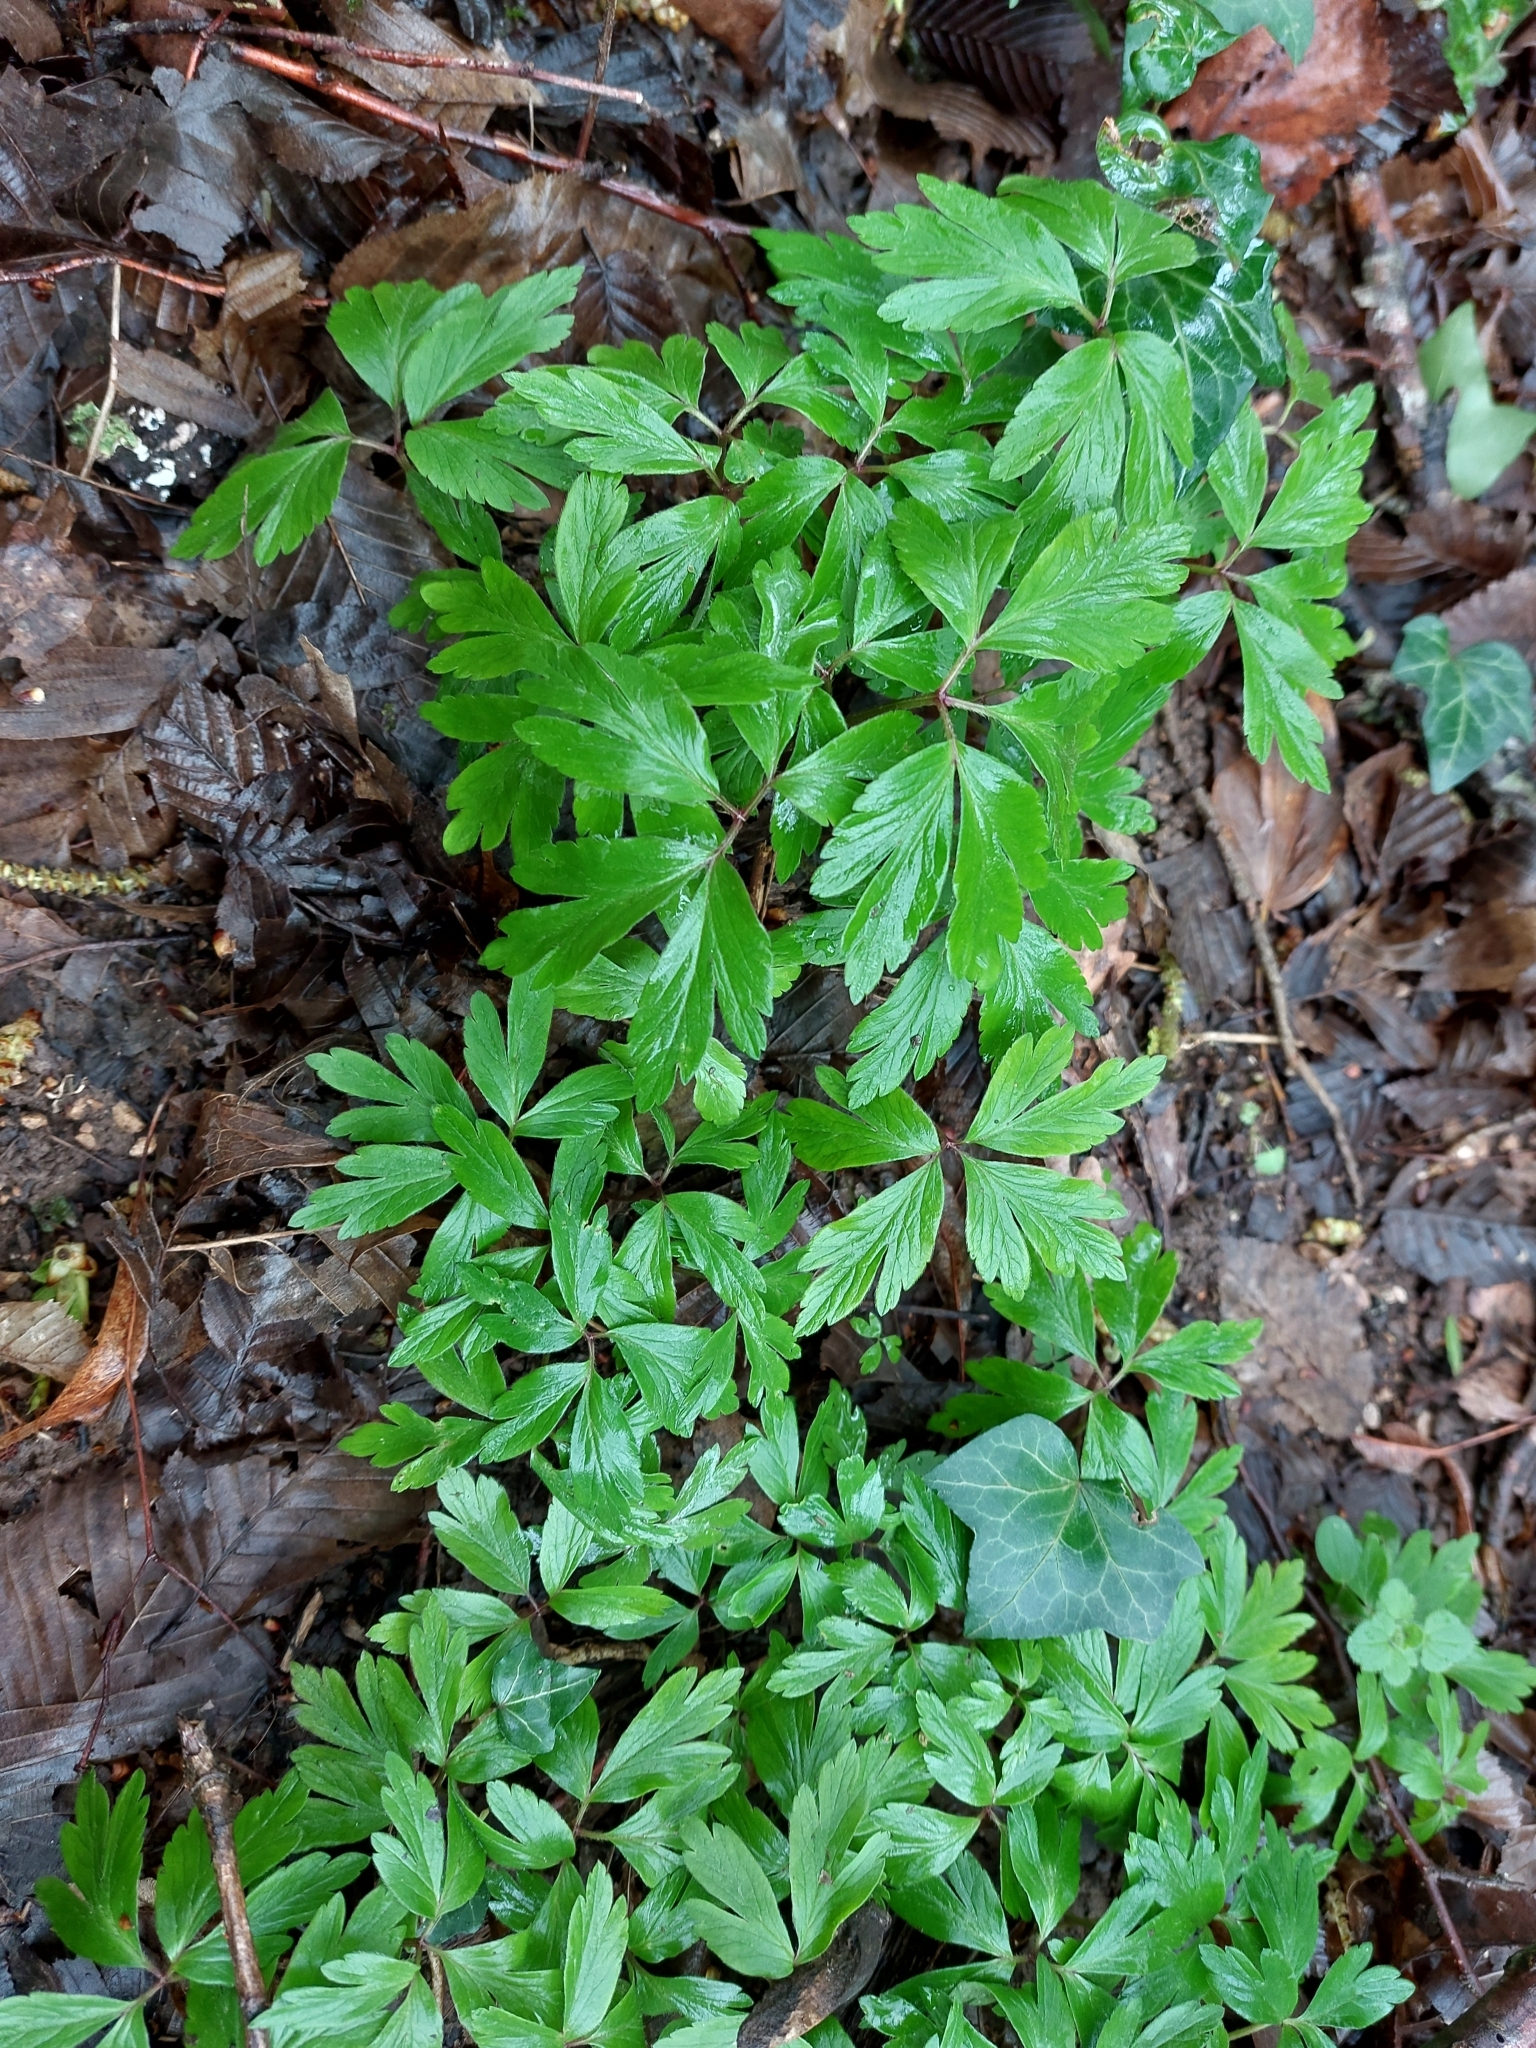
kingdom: Plantae
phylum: Tracheophyta
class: Magnoliopsida
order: Ranunculales
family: Ranunculaceae
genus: Anemone
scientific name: Anemone nemorosa
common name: Wood anemone
